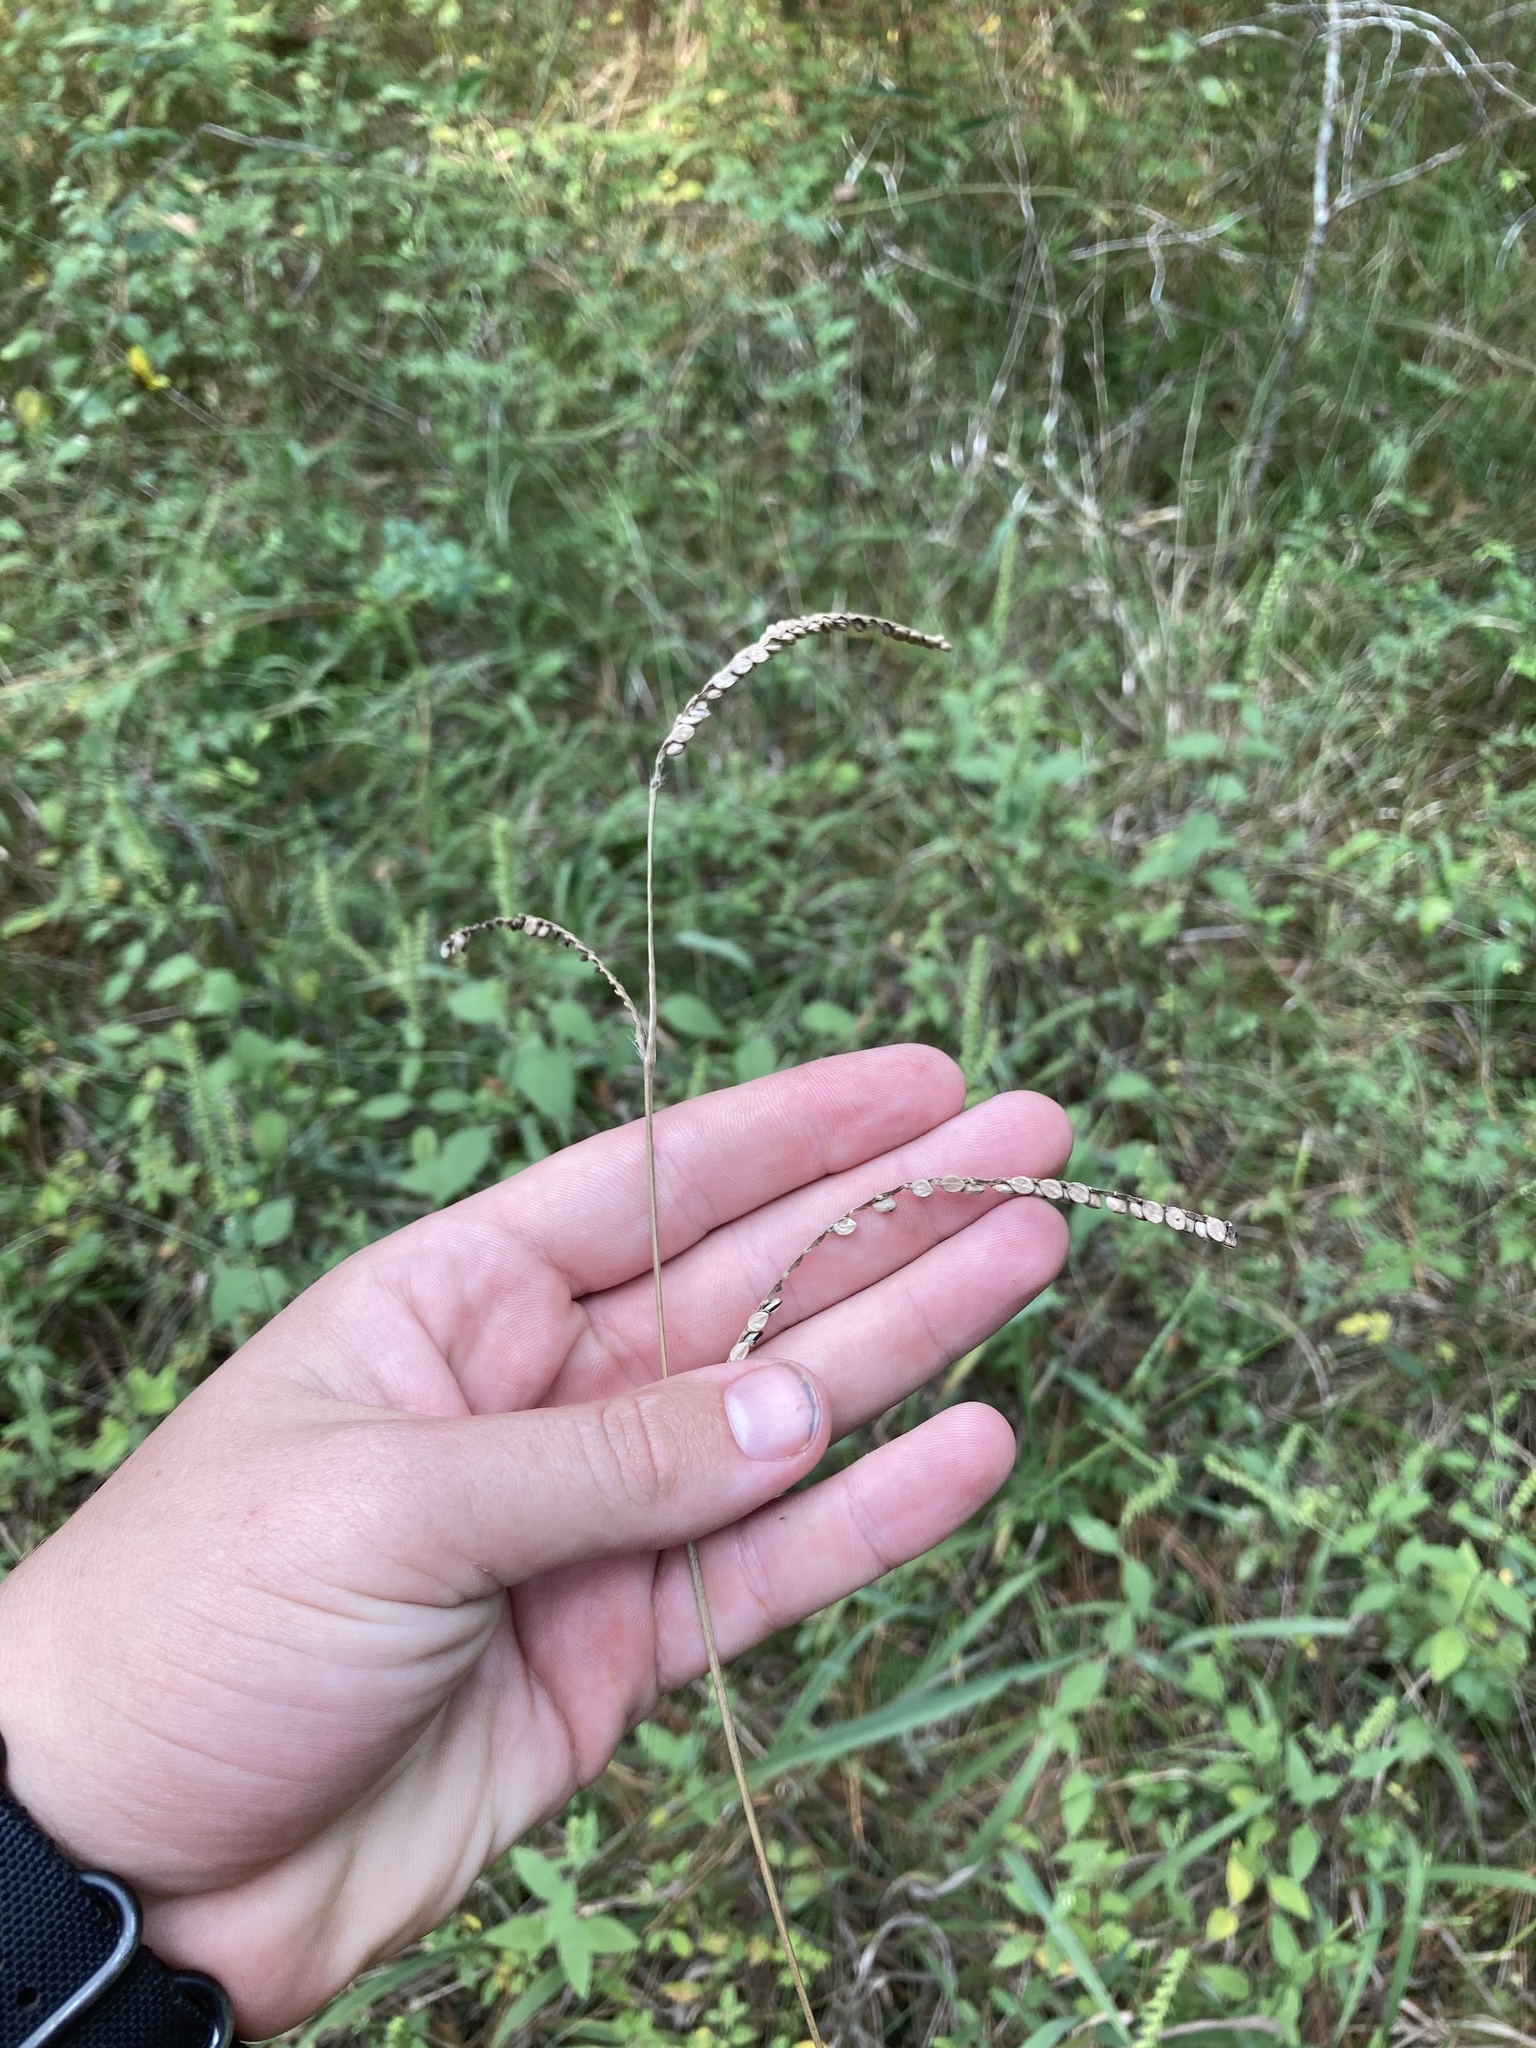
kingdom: Plantae
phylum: Tracheophyta
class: Liliopsida
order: Poales
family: Poaceae
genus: Paspalum
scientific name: Paspalum floridanum
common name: Florida paspalum
